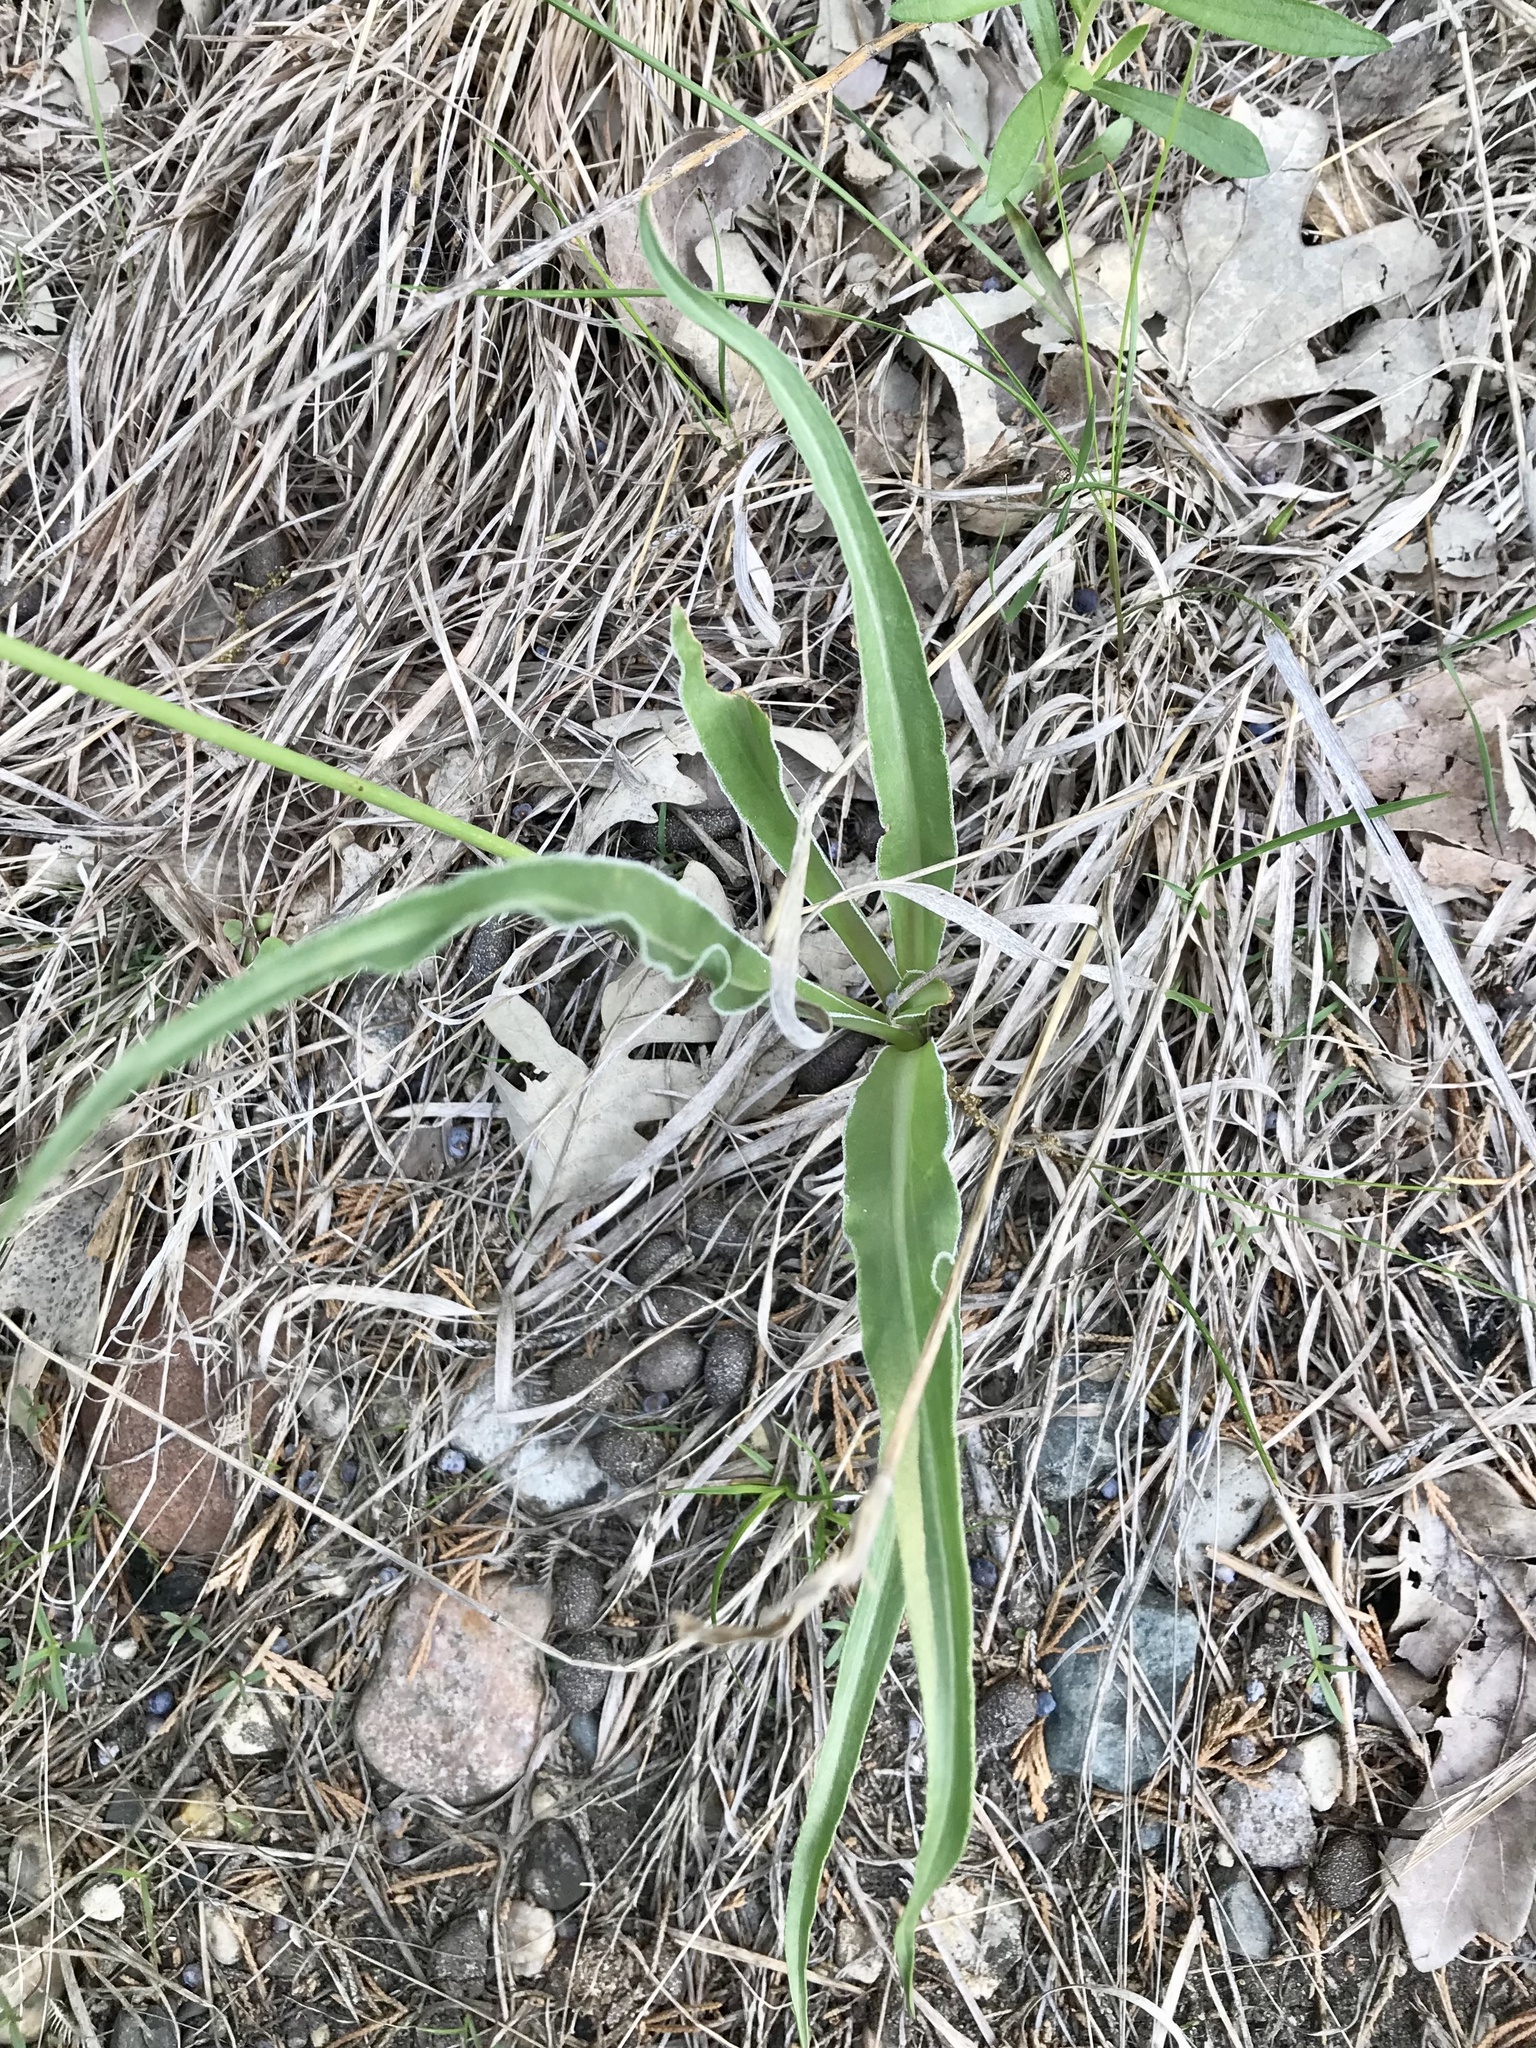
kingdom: Plantae
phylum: Tracheophyta
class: Magnoliopsida
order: Asterales
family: Asteraceae
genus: Microseris
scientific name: Microseris cuspidata
